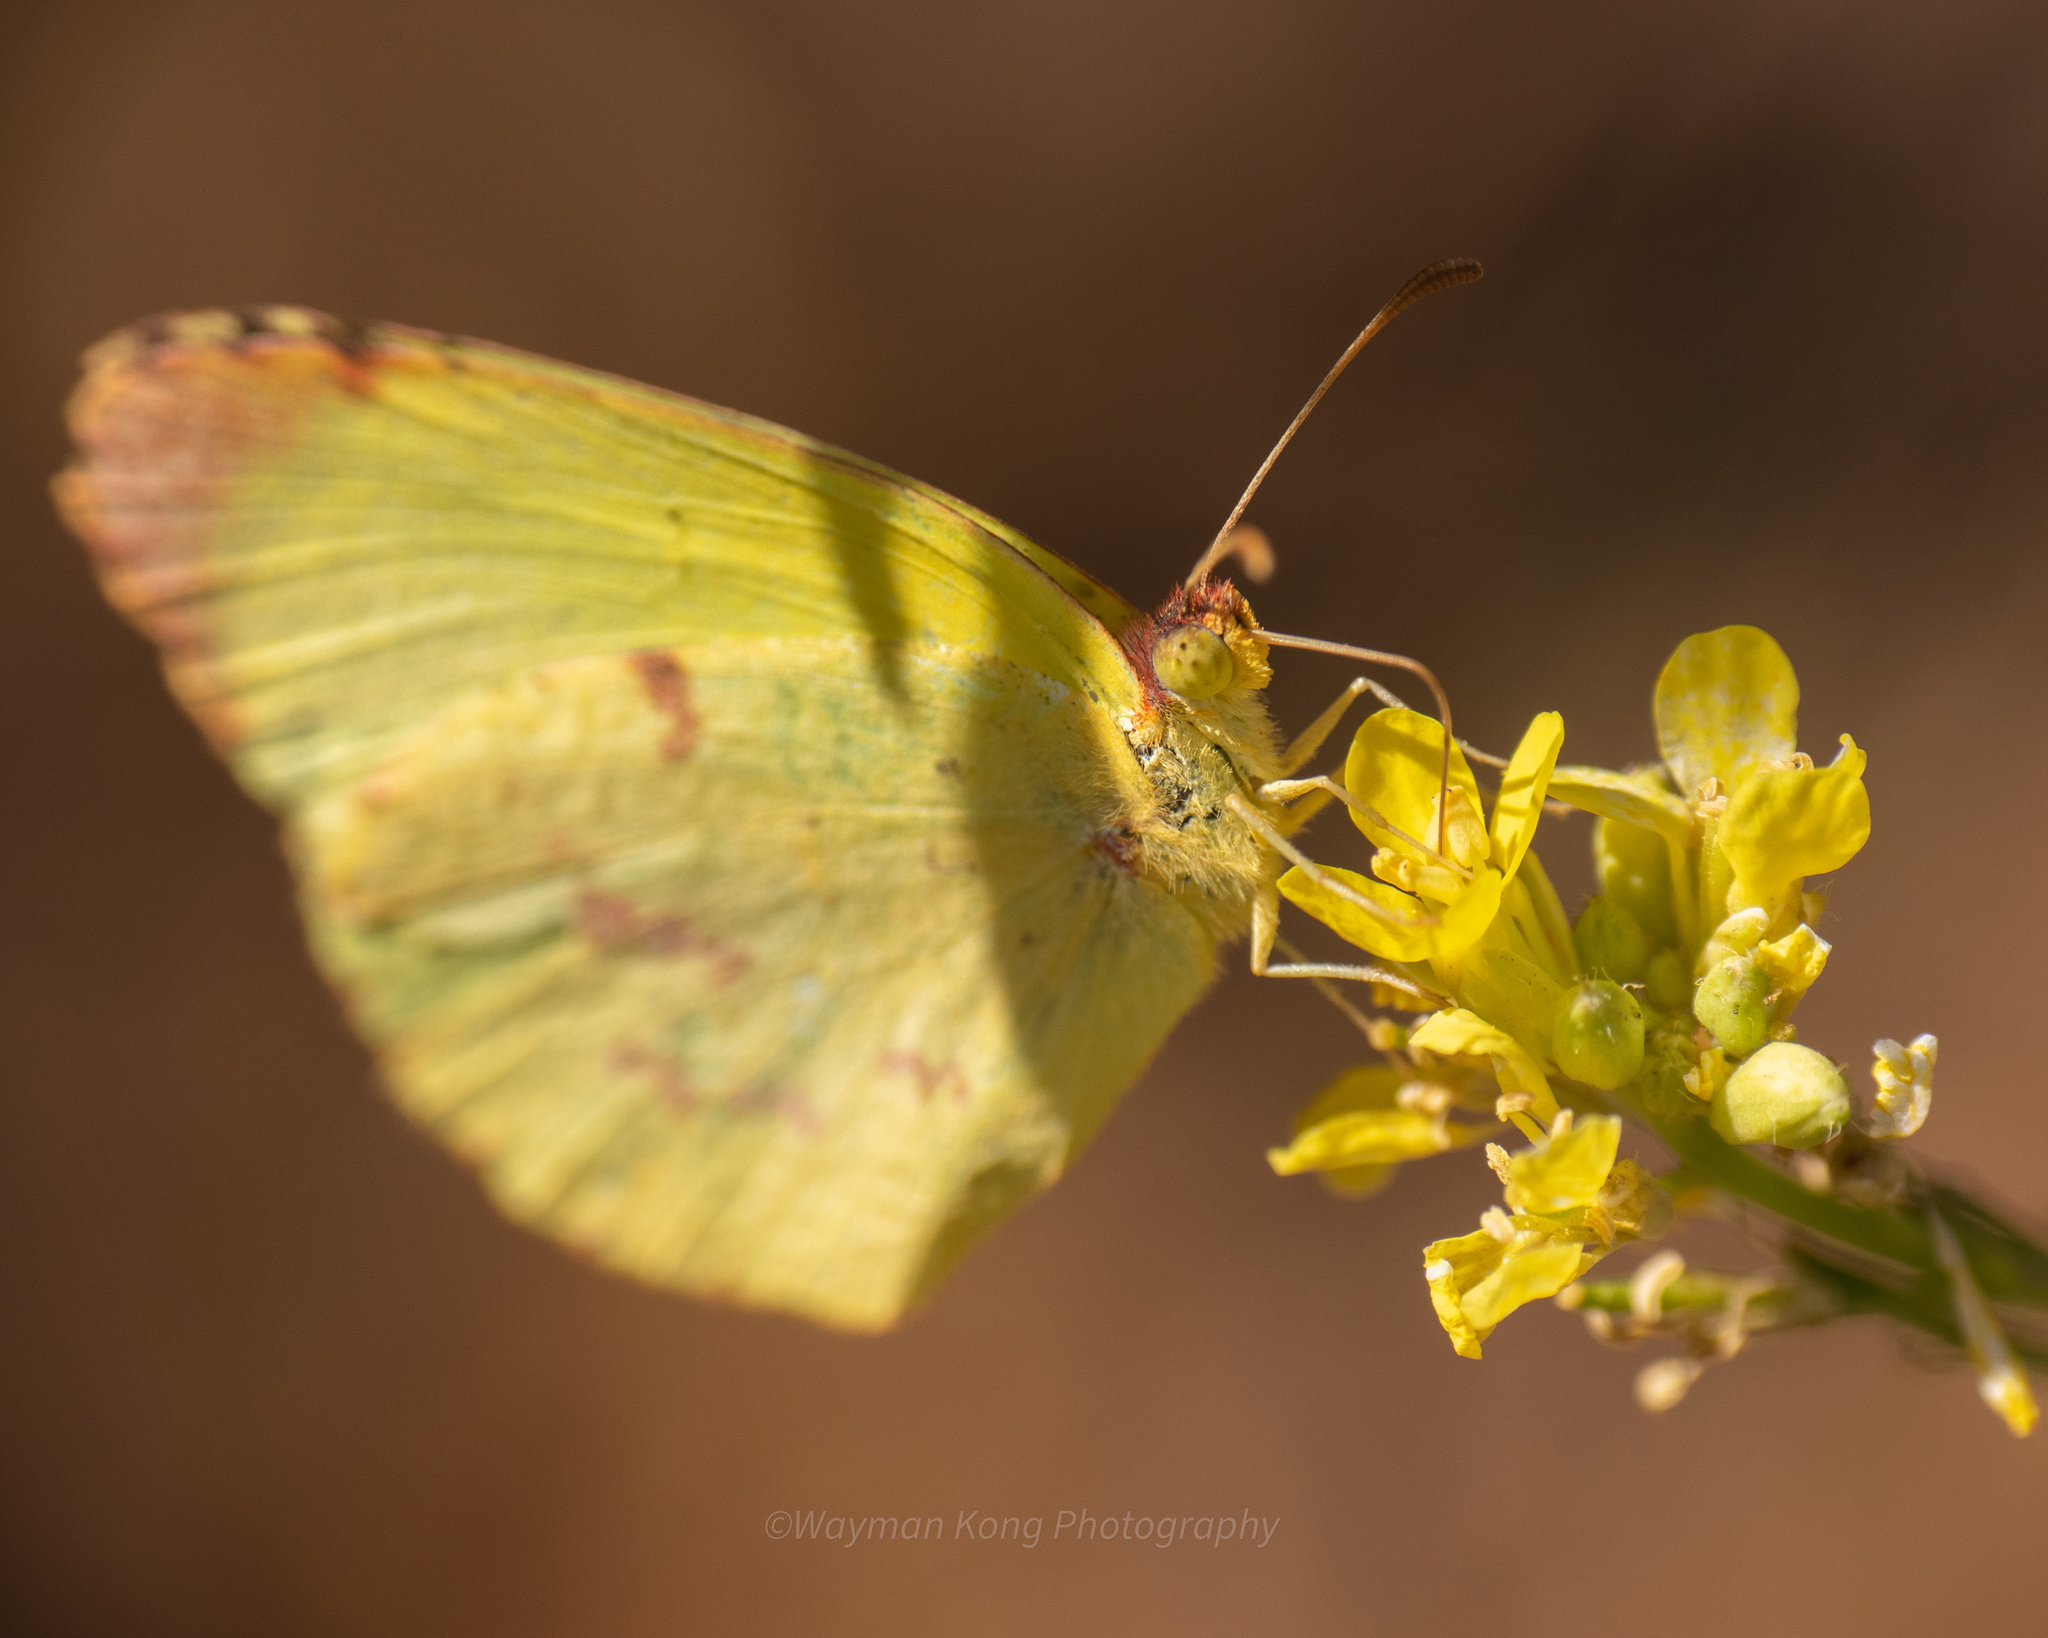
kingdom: Animalia
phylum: Arthropoda
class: Insecta
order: Lepidoptera
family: Pieridae
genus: Teriocolias
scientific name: Teriocolias
